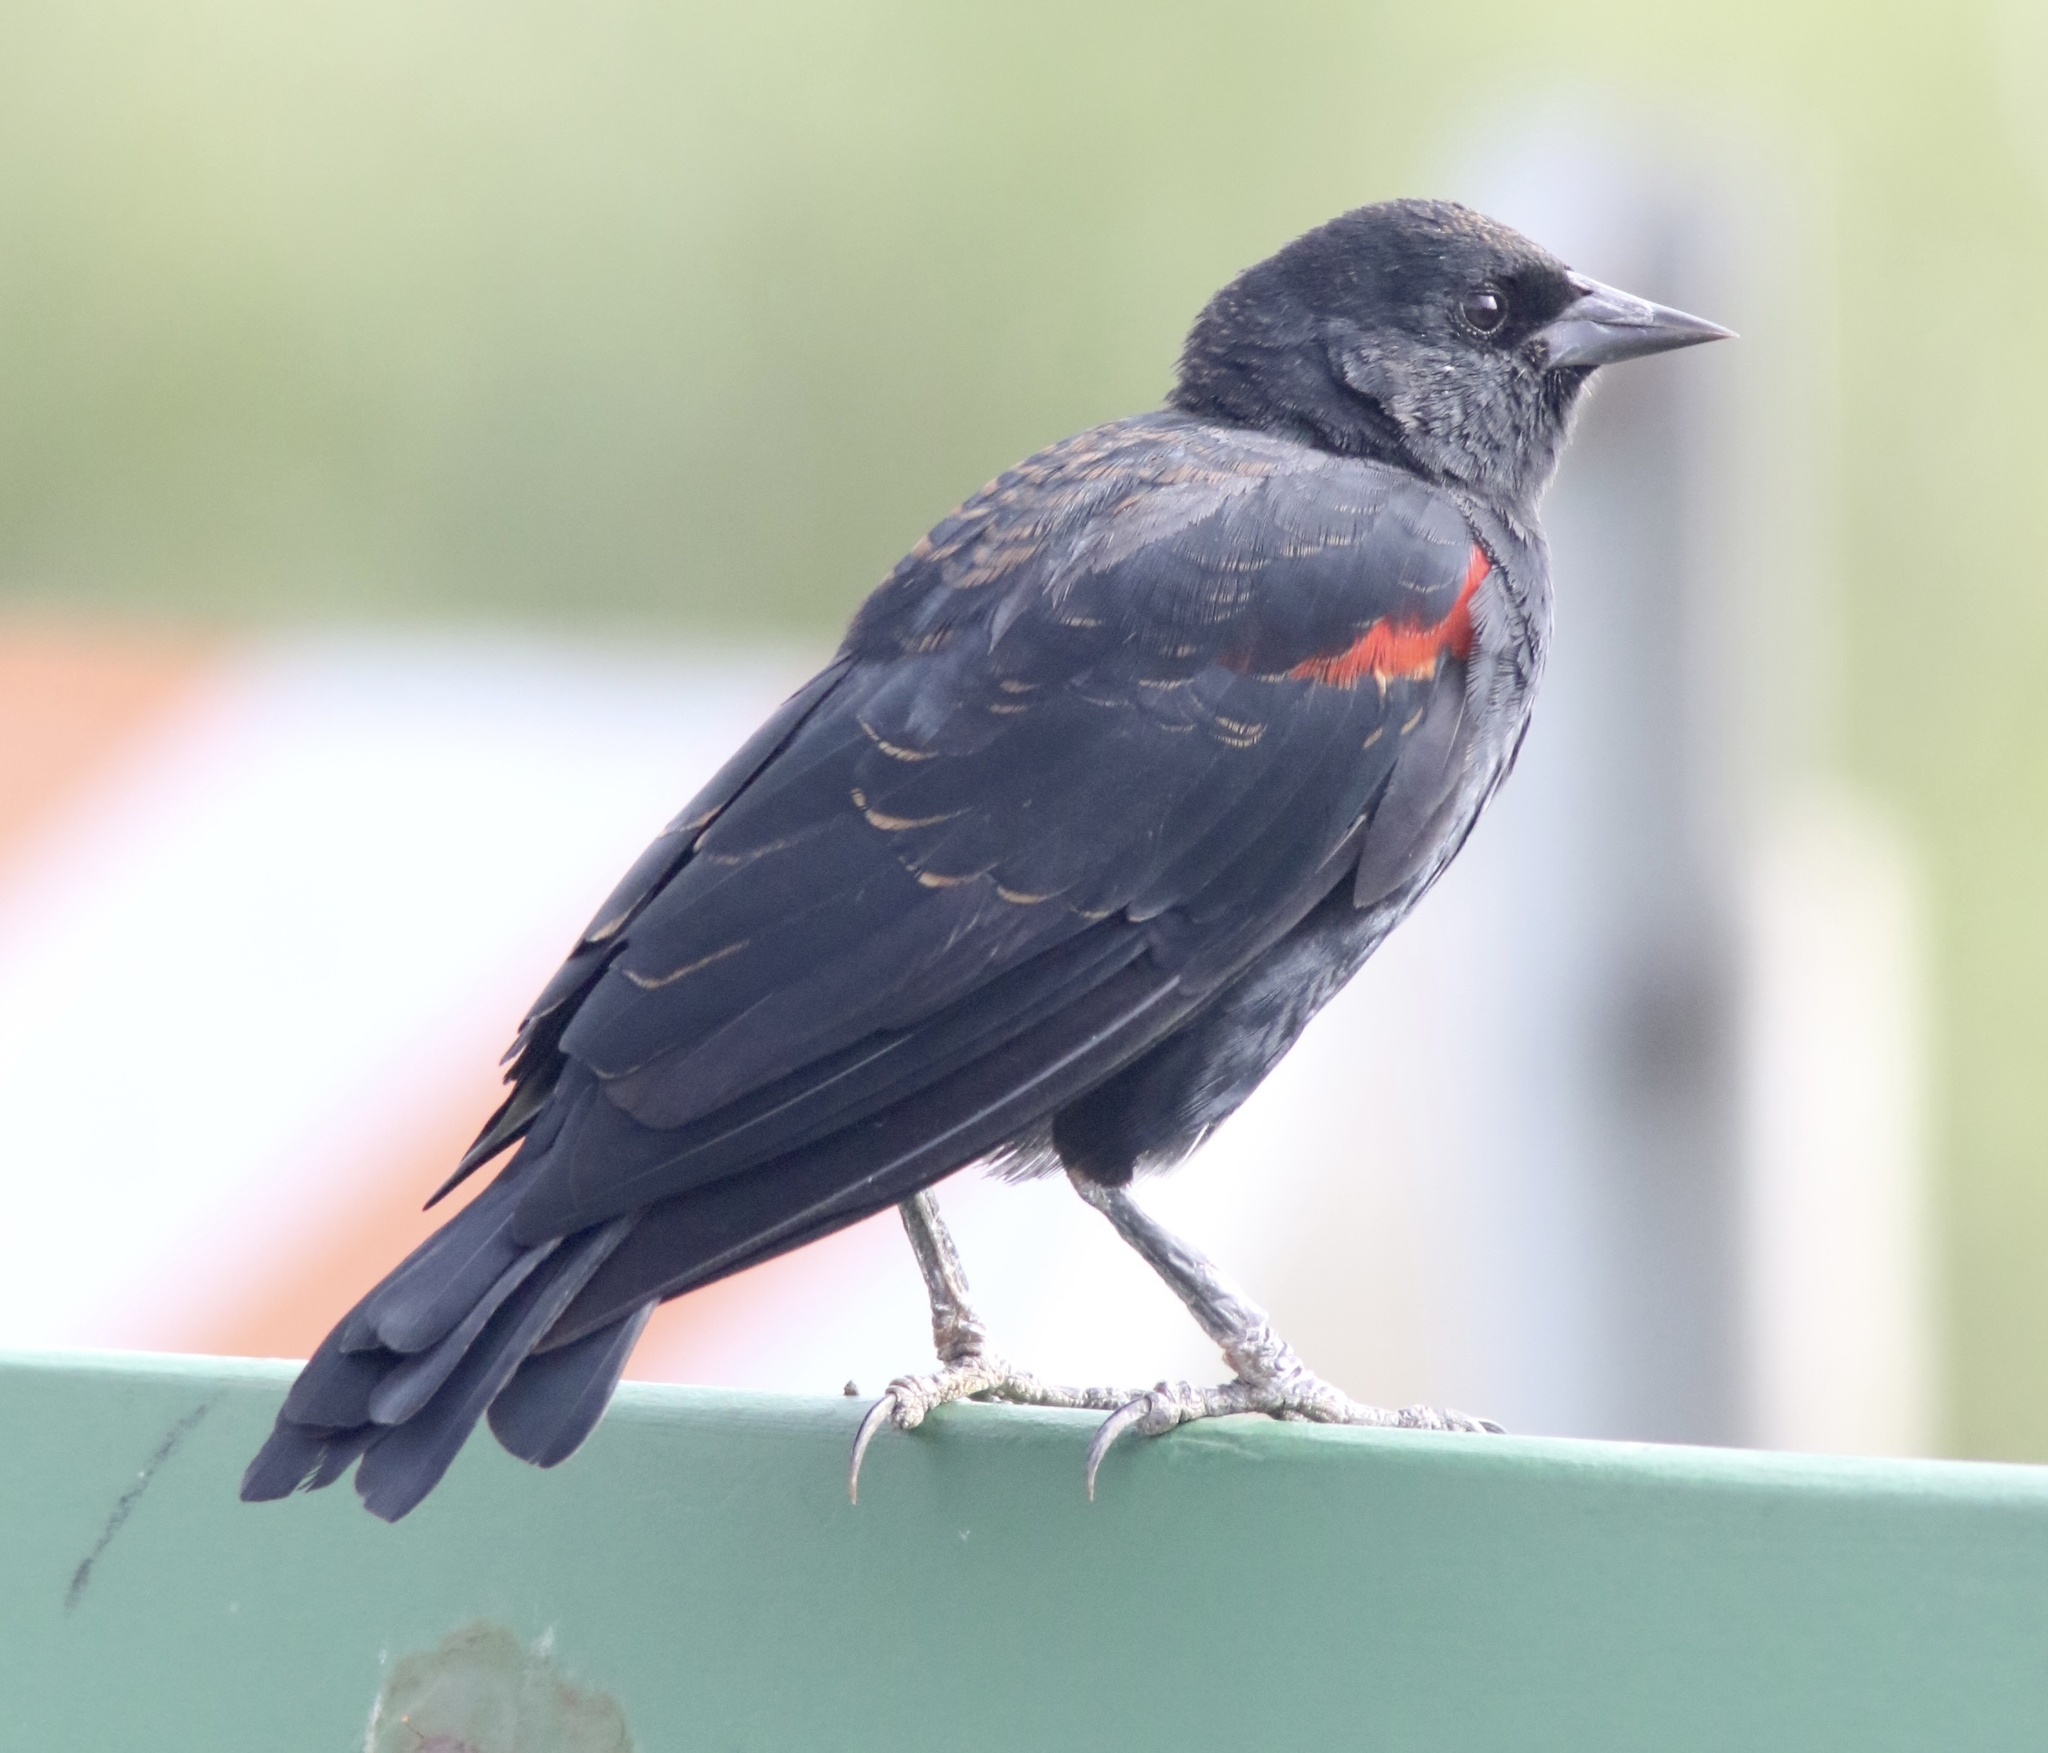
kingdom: Animalia
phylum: Chordata
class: Aves
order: Passeriformes
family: Icteridae
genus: Agelaius
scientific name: Agelaius phoeniceus
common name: Red-winged blackbird
